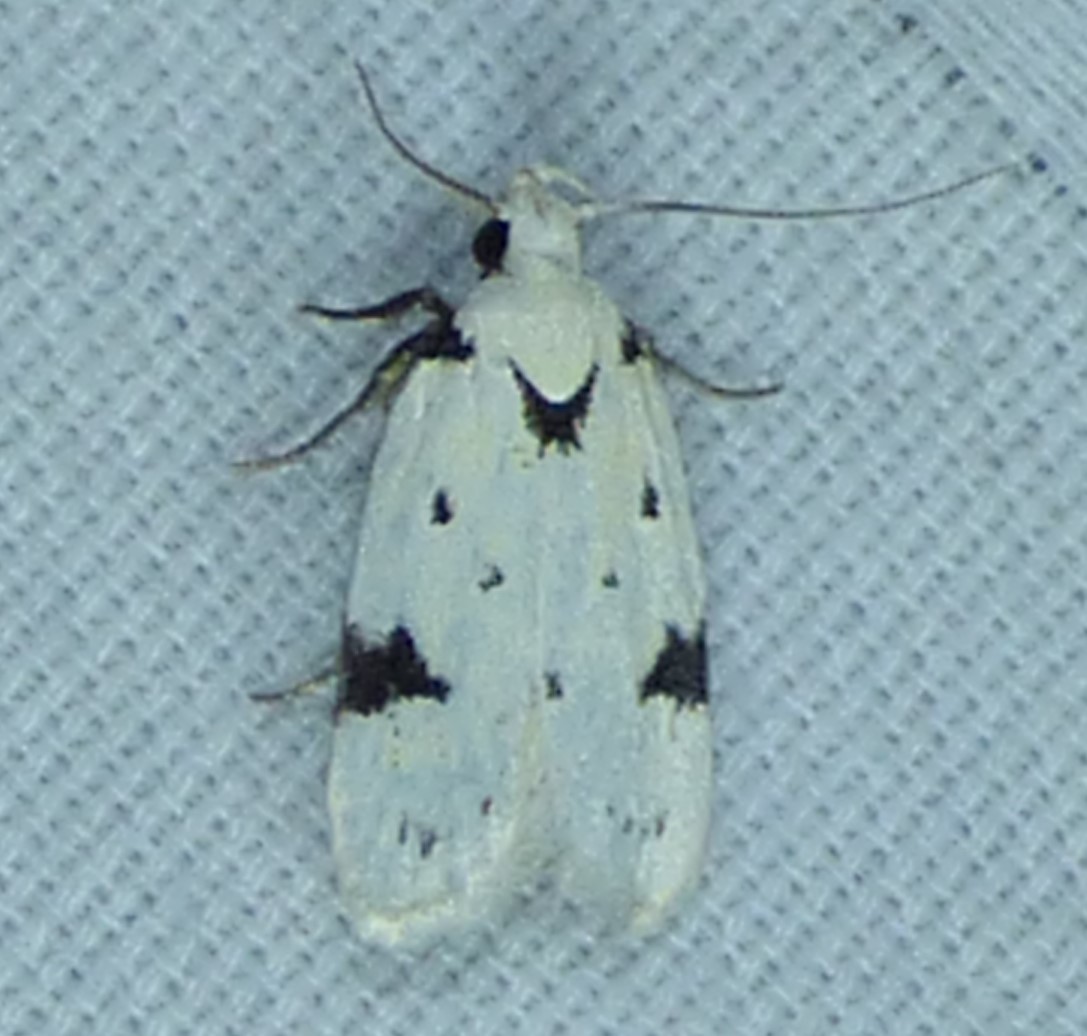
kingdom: Animalia
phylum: Arthropoda
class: Insecta
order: Lepidoptera
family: Oecophoridae
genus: Inga
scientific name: Inga sparsiciliella
